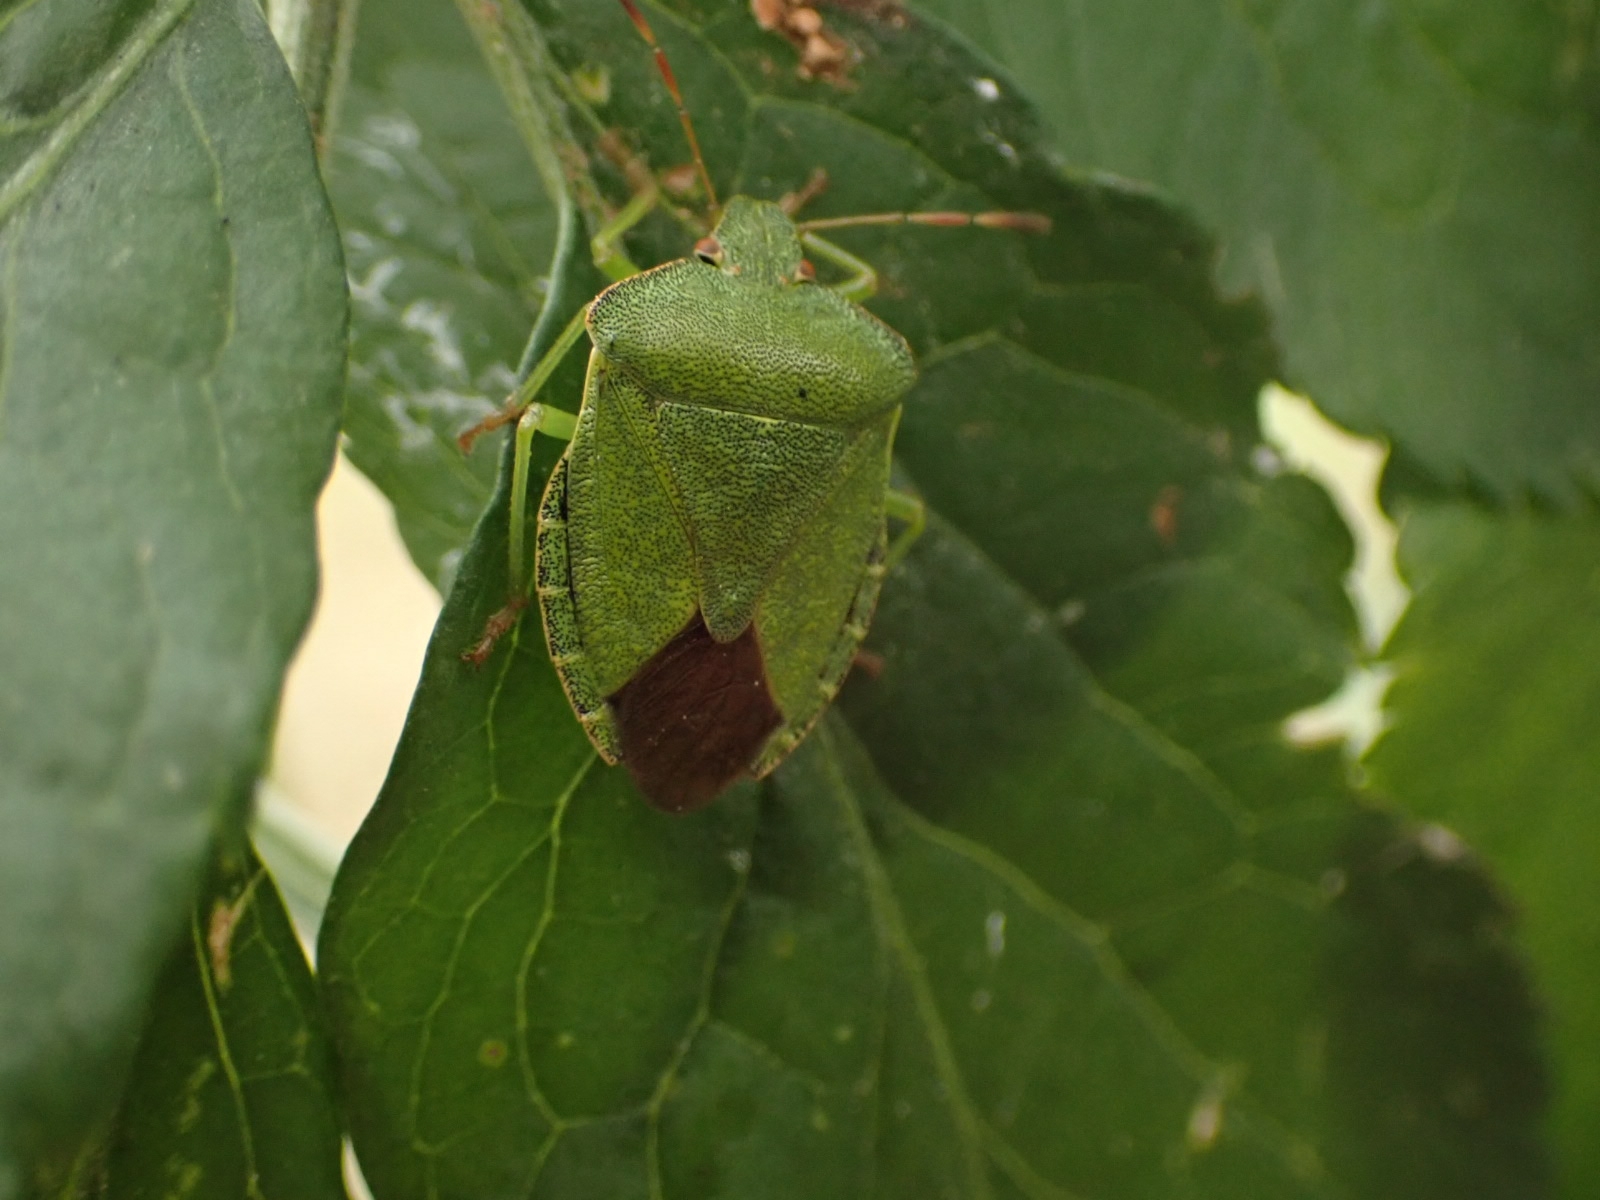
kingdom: Animalia
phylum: Arthropoda
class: Insecta
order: Hemiptera
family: Pentatomidae
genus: Palomena
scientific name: Palomena prasina
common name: Green shieldbug
